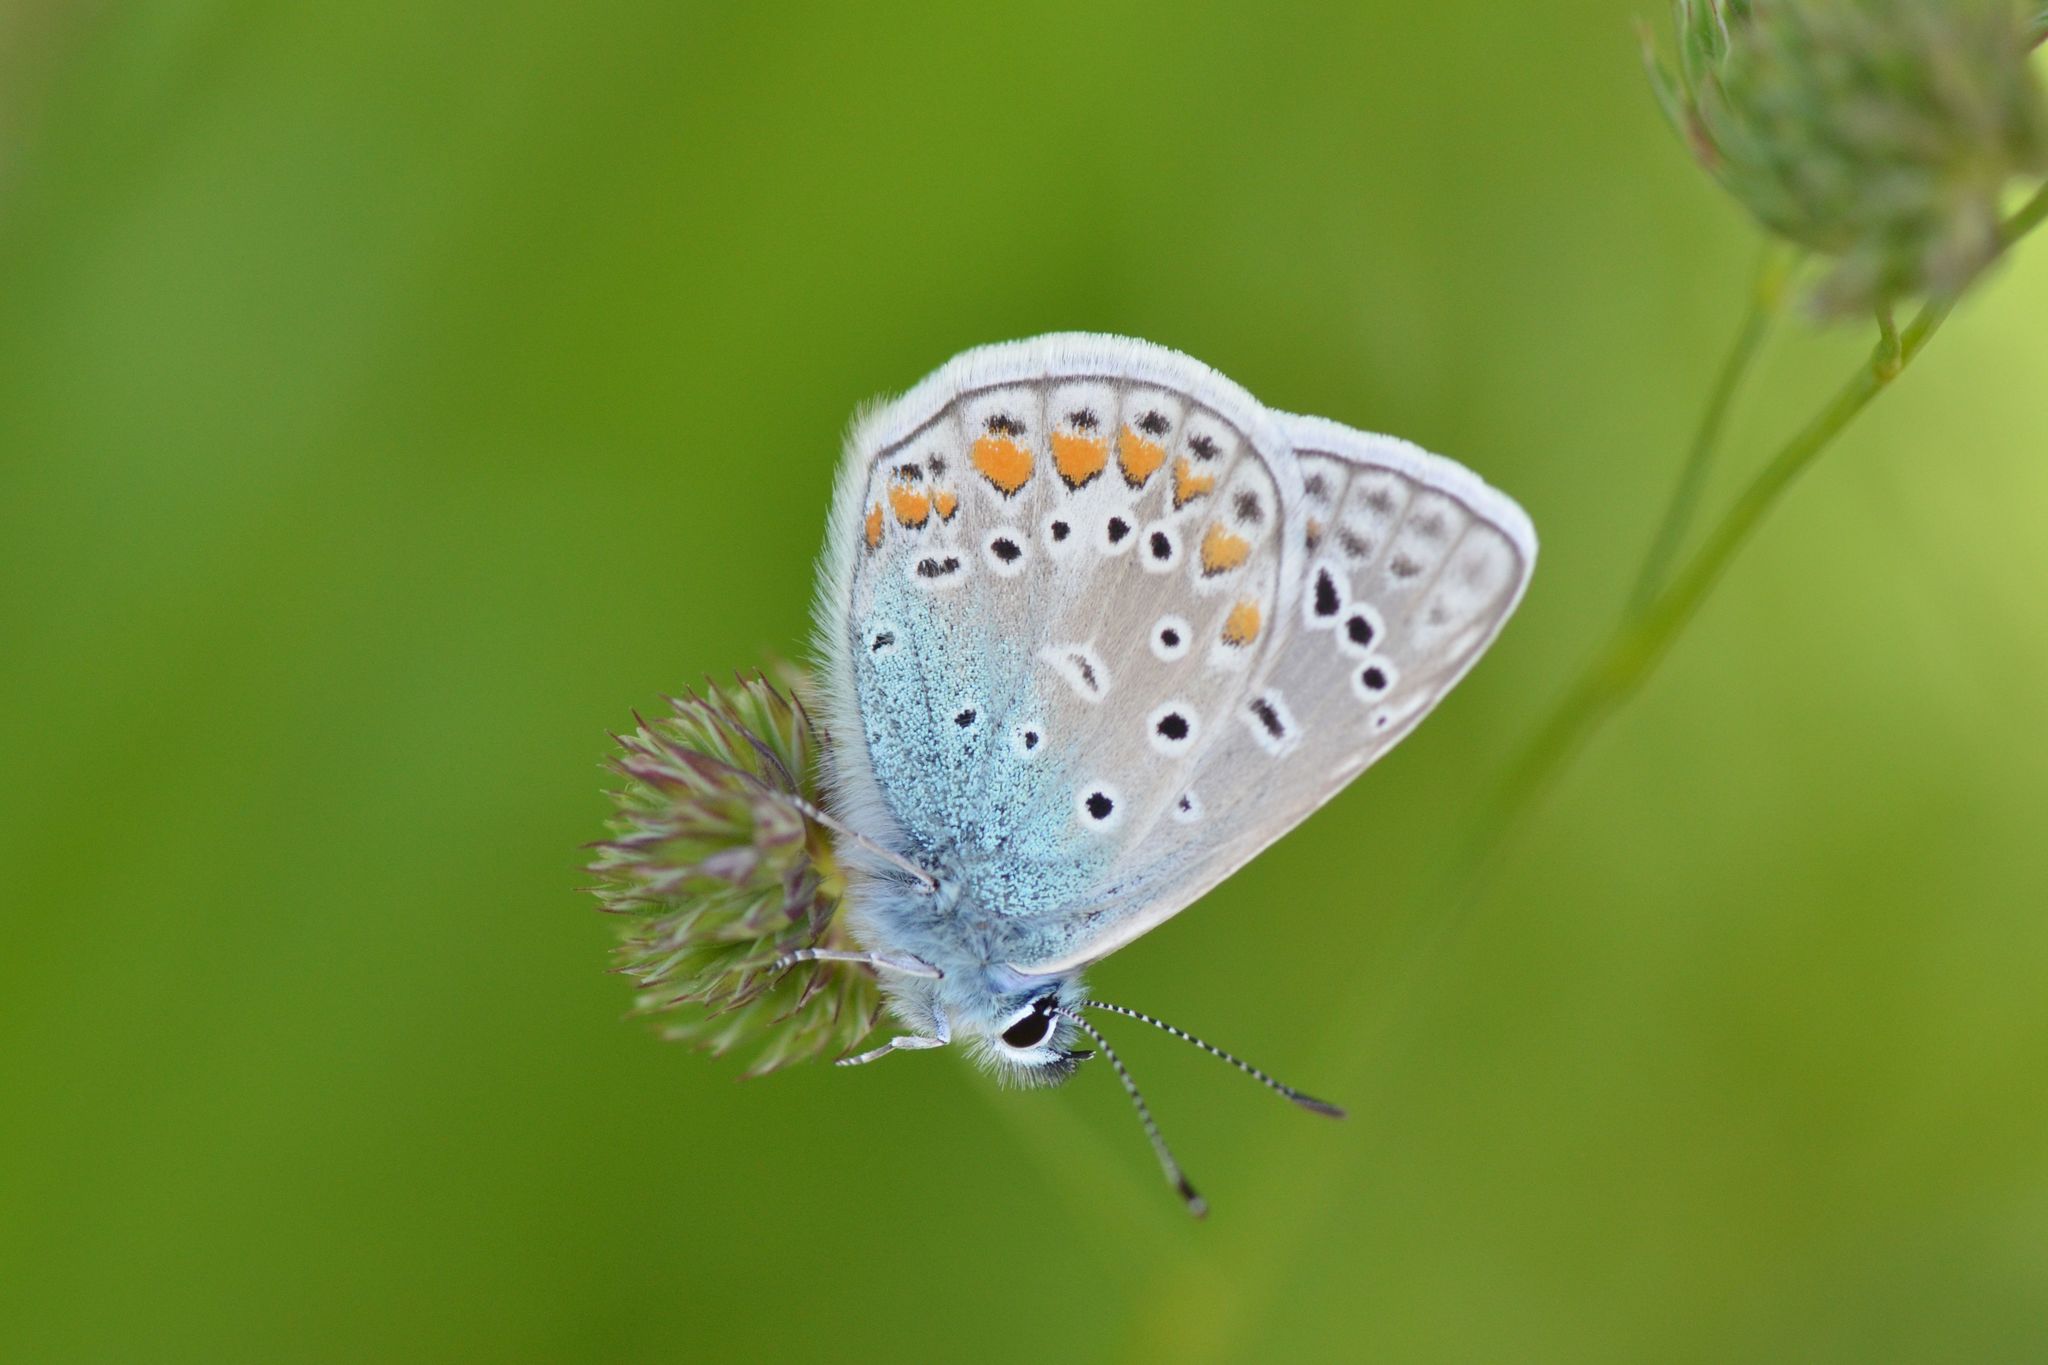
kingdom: Animalia
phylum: Arthropoda
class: Insecta
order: Lepidoptera
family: Lycaenidae
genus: Polyommatus
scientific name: Polyommatus icarus
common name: Common blue
